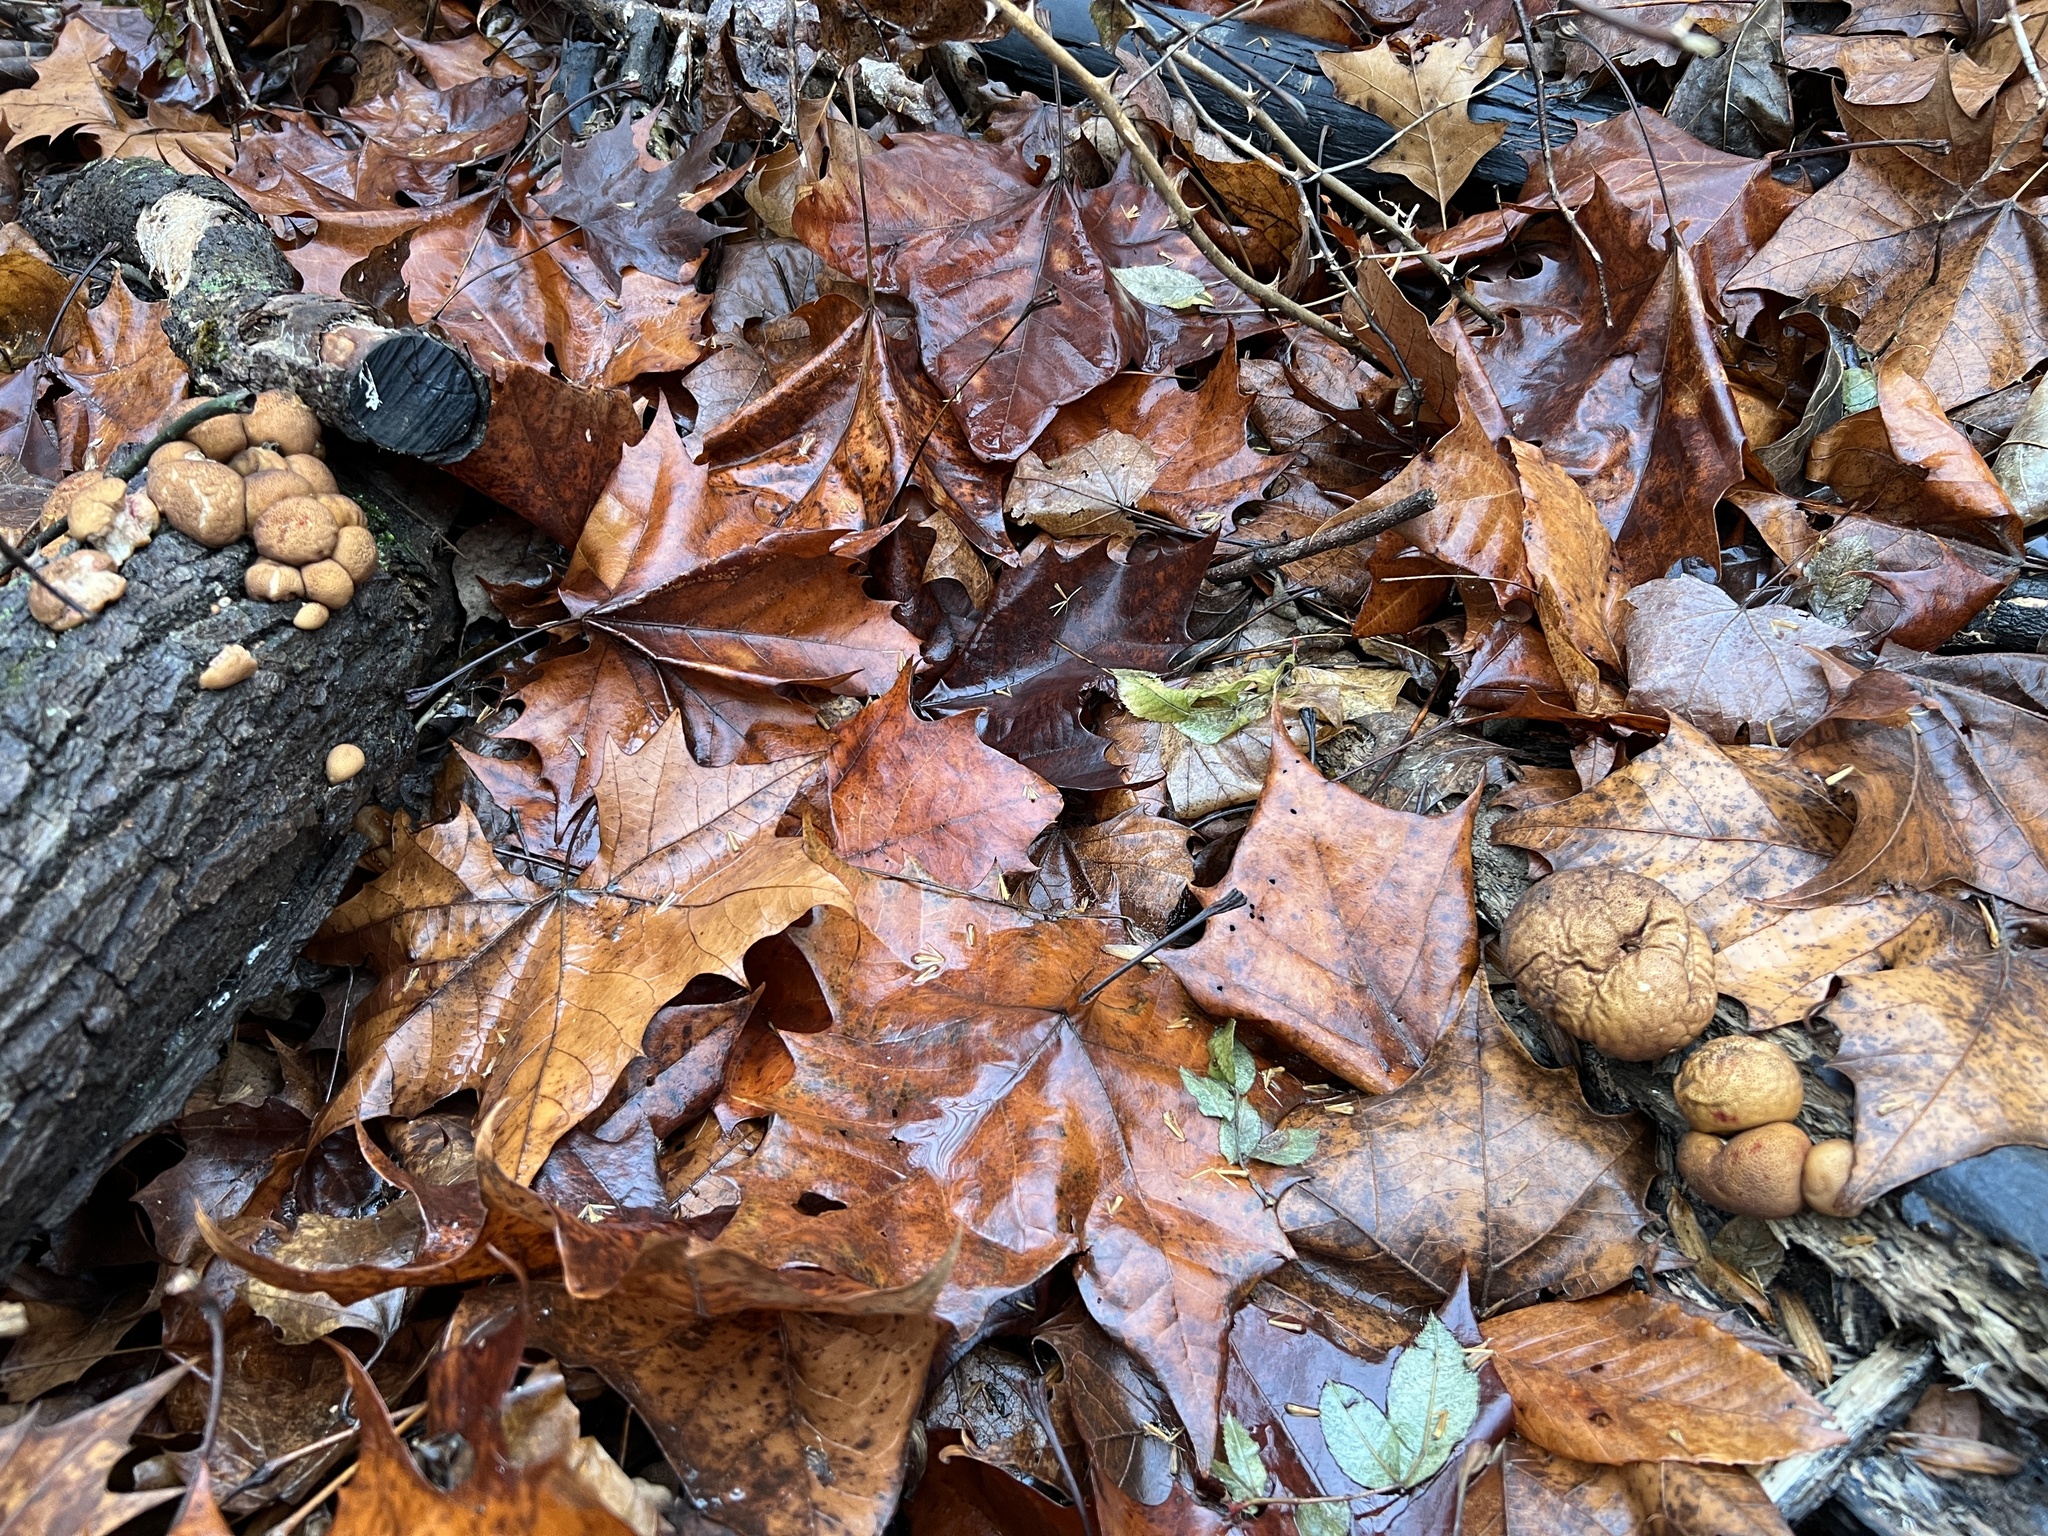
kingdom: Fungi
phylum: Basidiomycota
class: Agaricomycetes
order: Agaricales
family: Lycoperdaceae
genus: Apioperdon
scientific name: Apioperdon pyriforme
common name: Pear-shaped puffball
